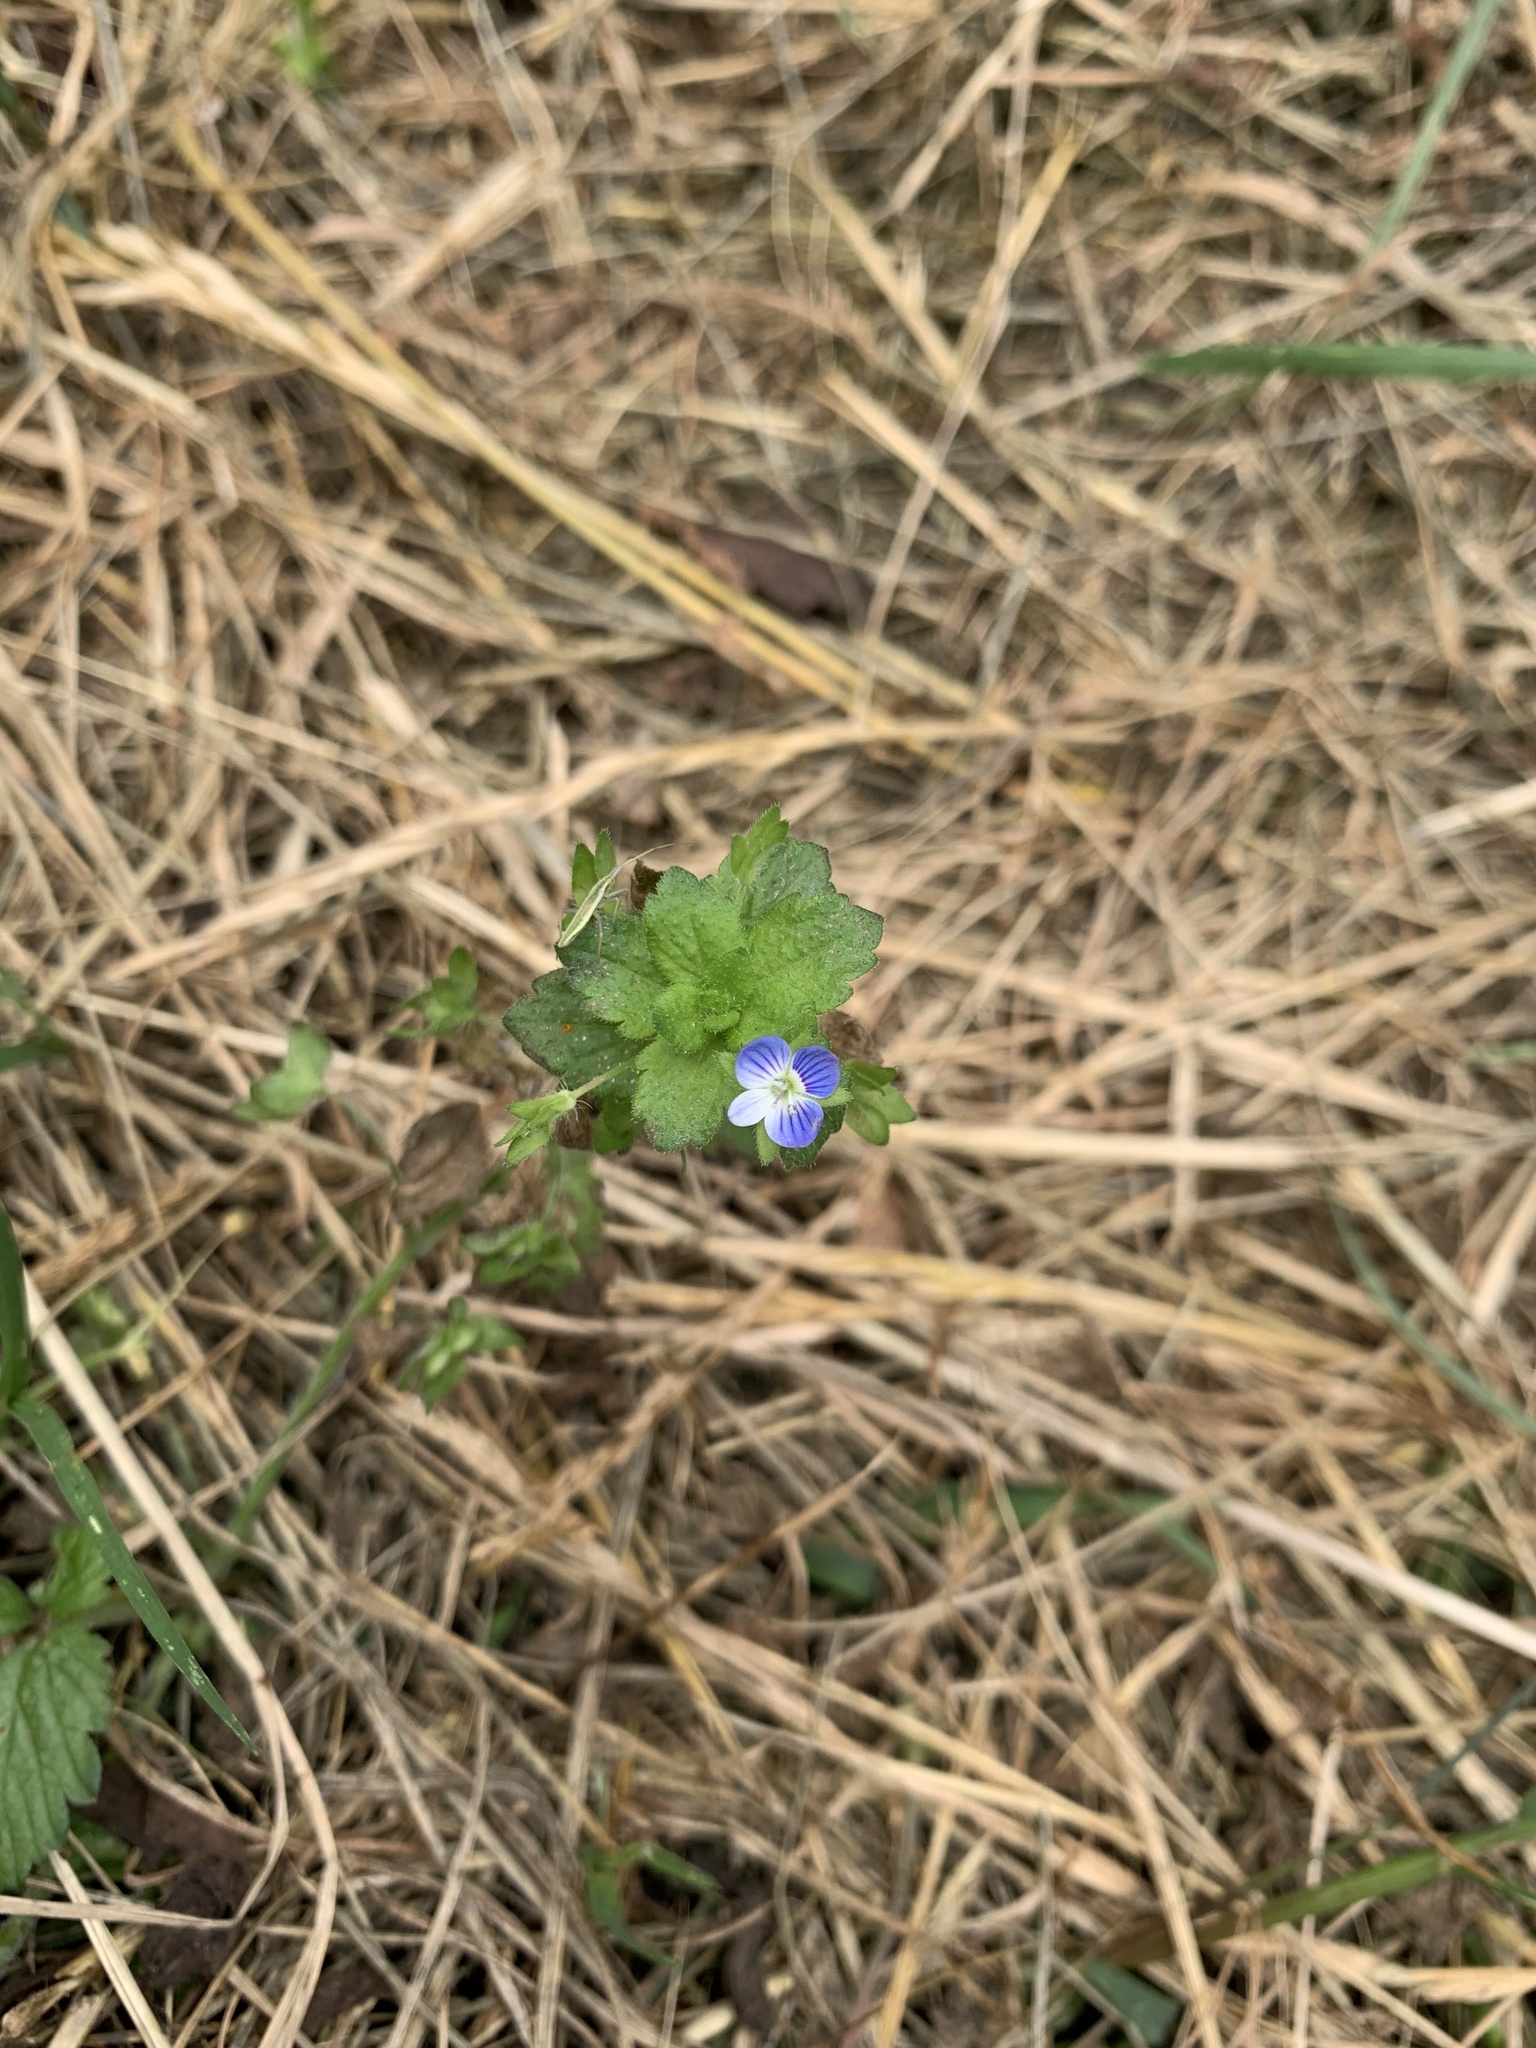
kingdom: Plantae
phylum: Tracheophyta
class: Magnoliopsida
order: Lamiales
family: Plantaginaceae
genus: Veronica
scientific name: Veronica persica
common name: Common field-speedwell
